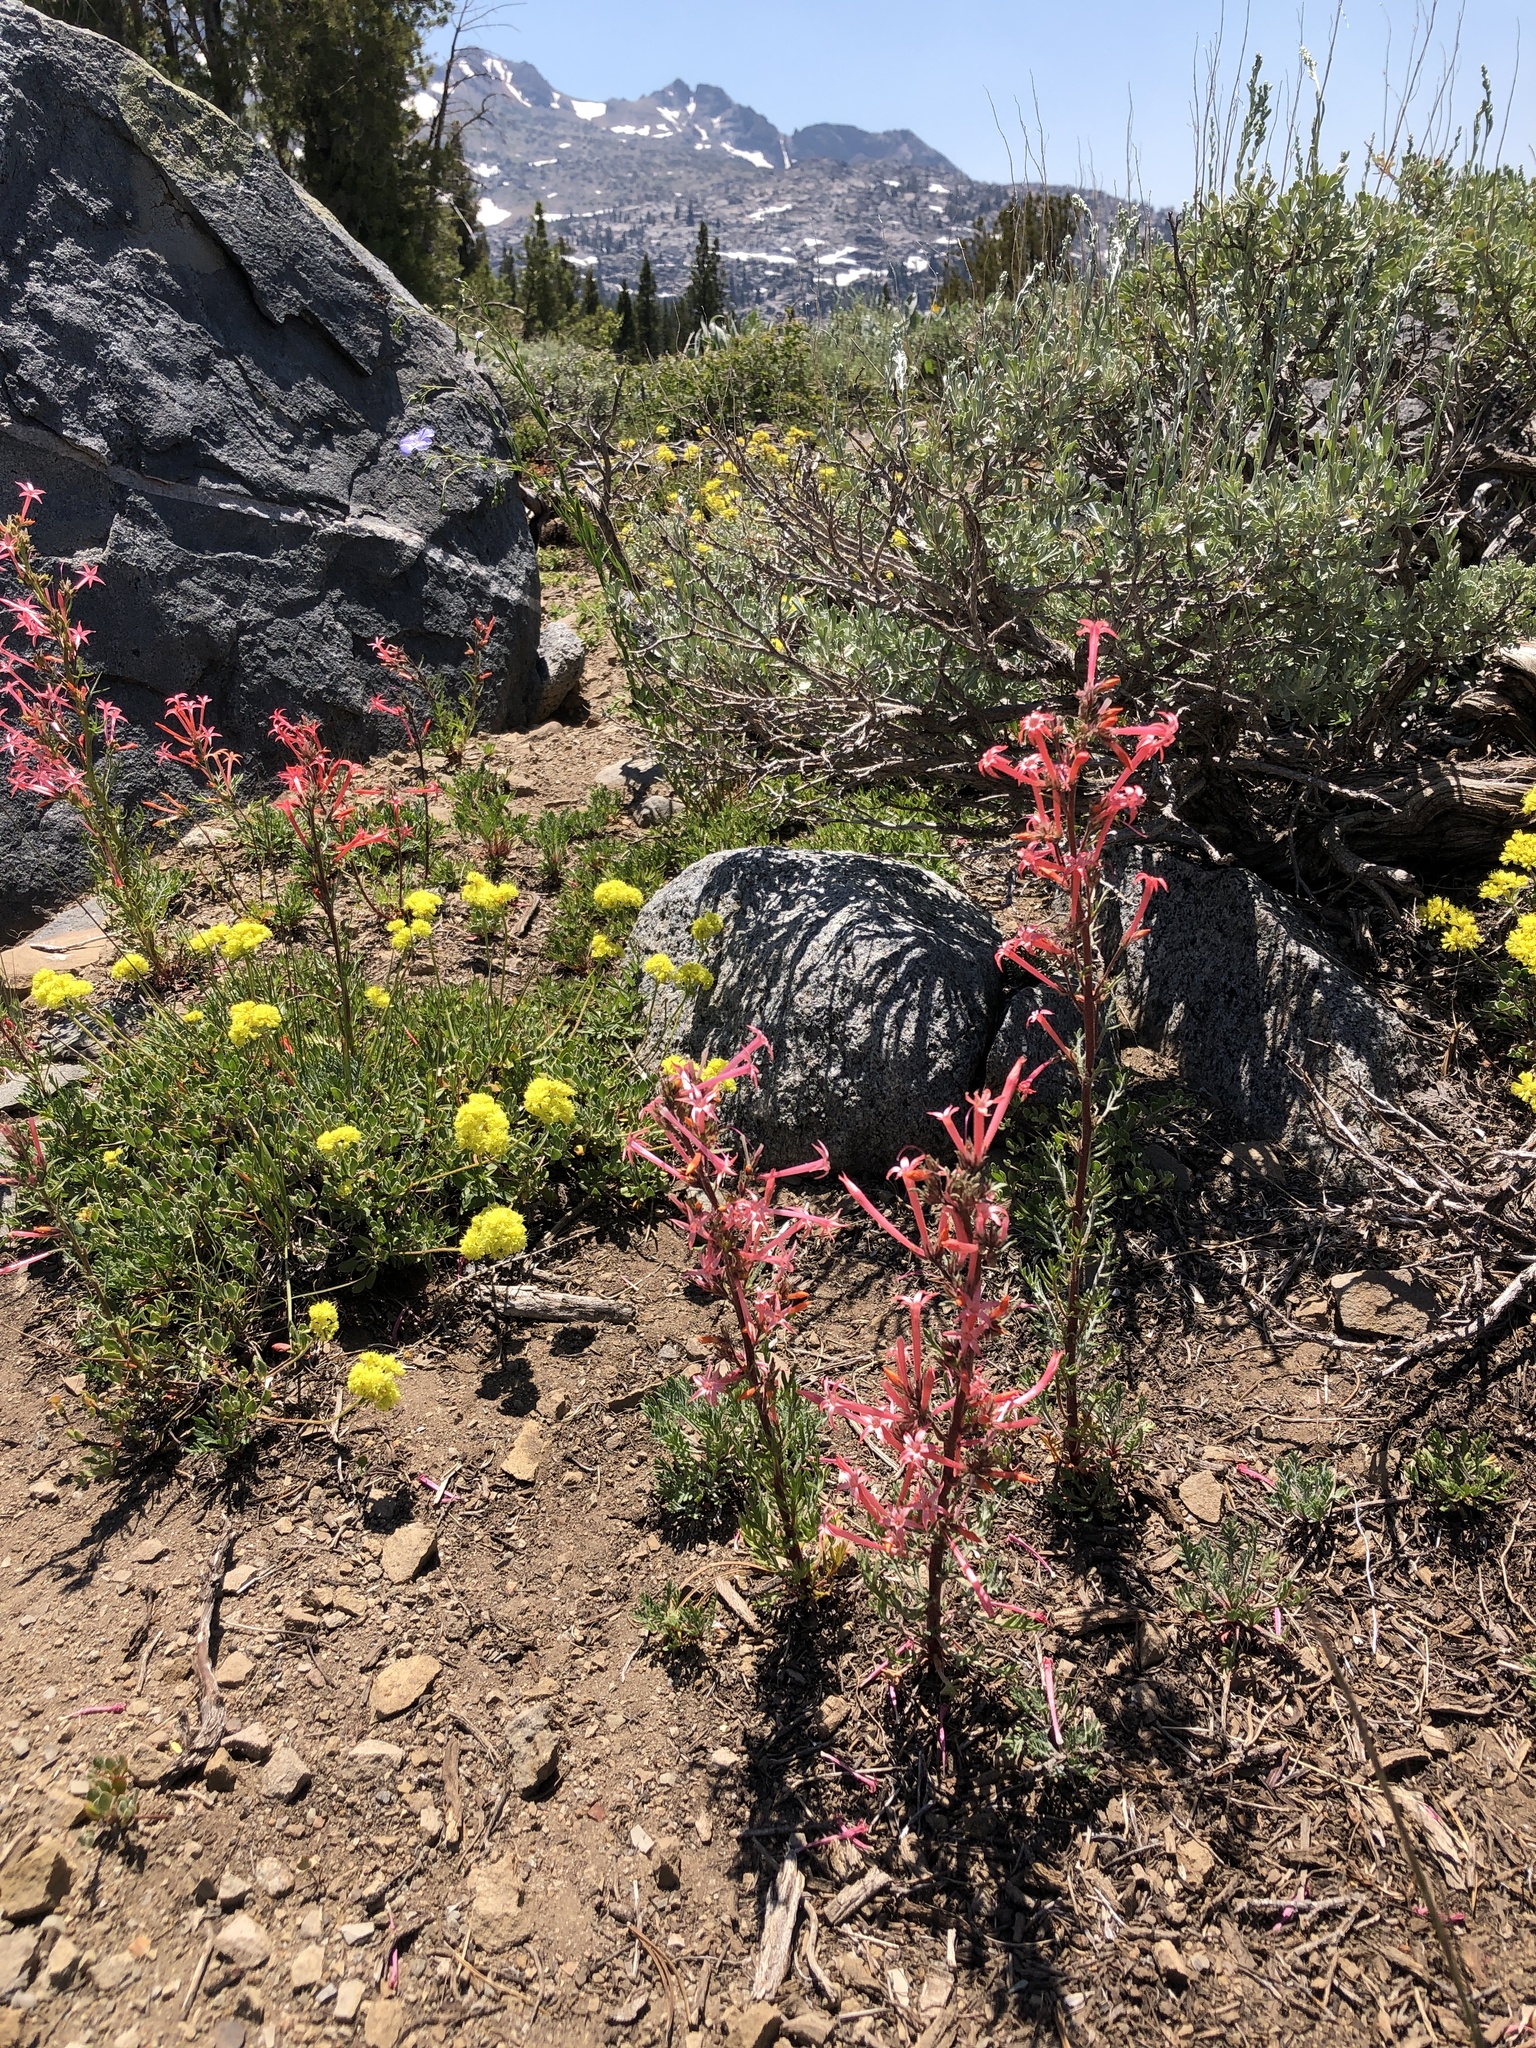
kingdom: Plantae
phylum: Tracheophyta
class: Magnoliopsida
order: Ericales
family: Polemoniaceae
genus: Ipomopsis
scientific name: Ipomopsis tenuituba
